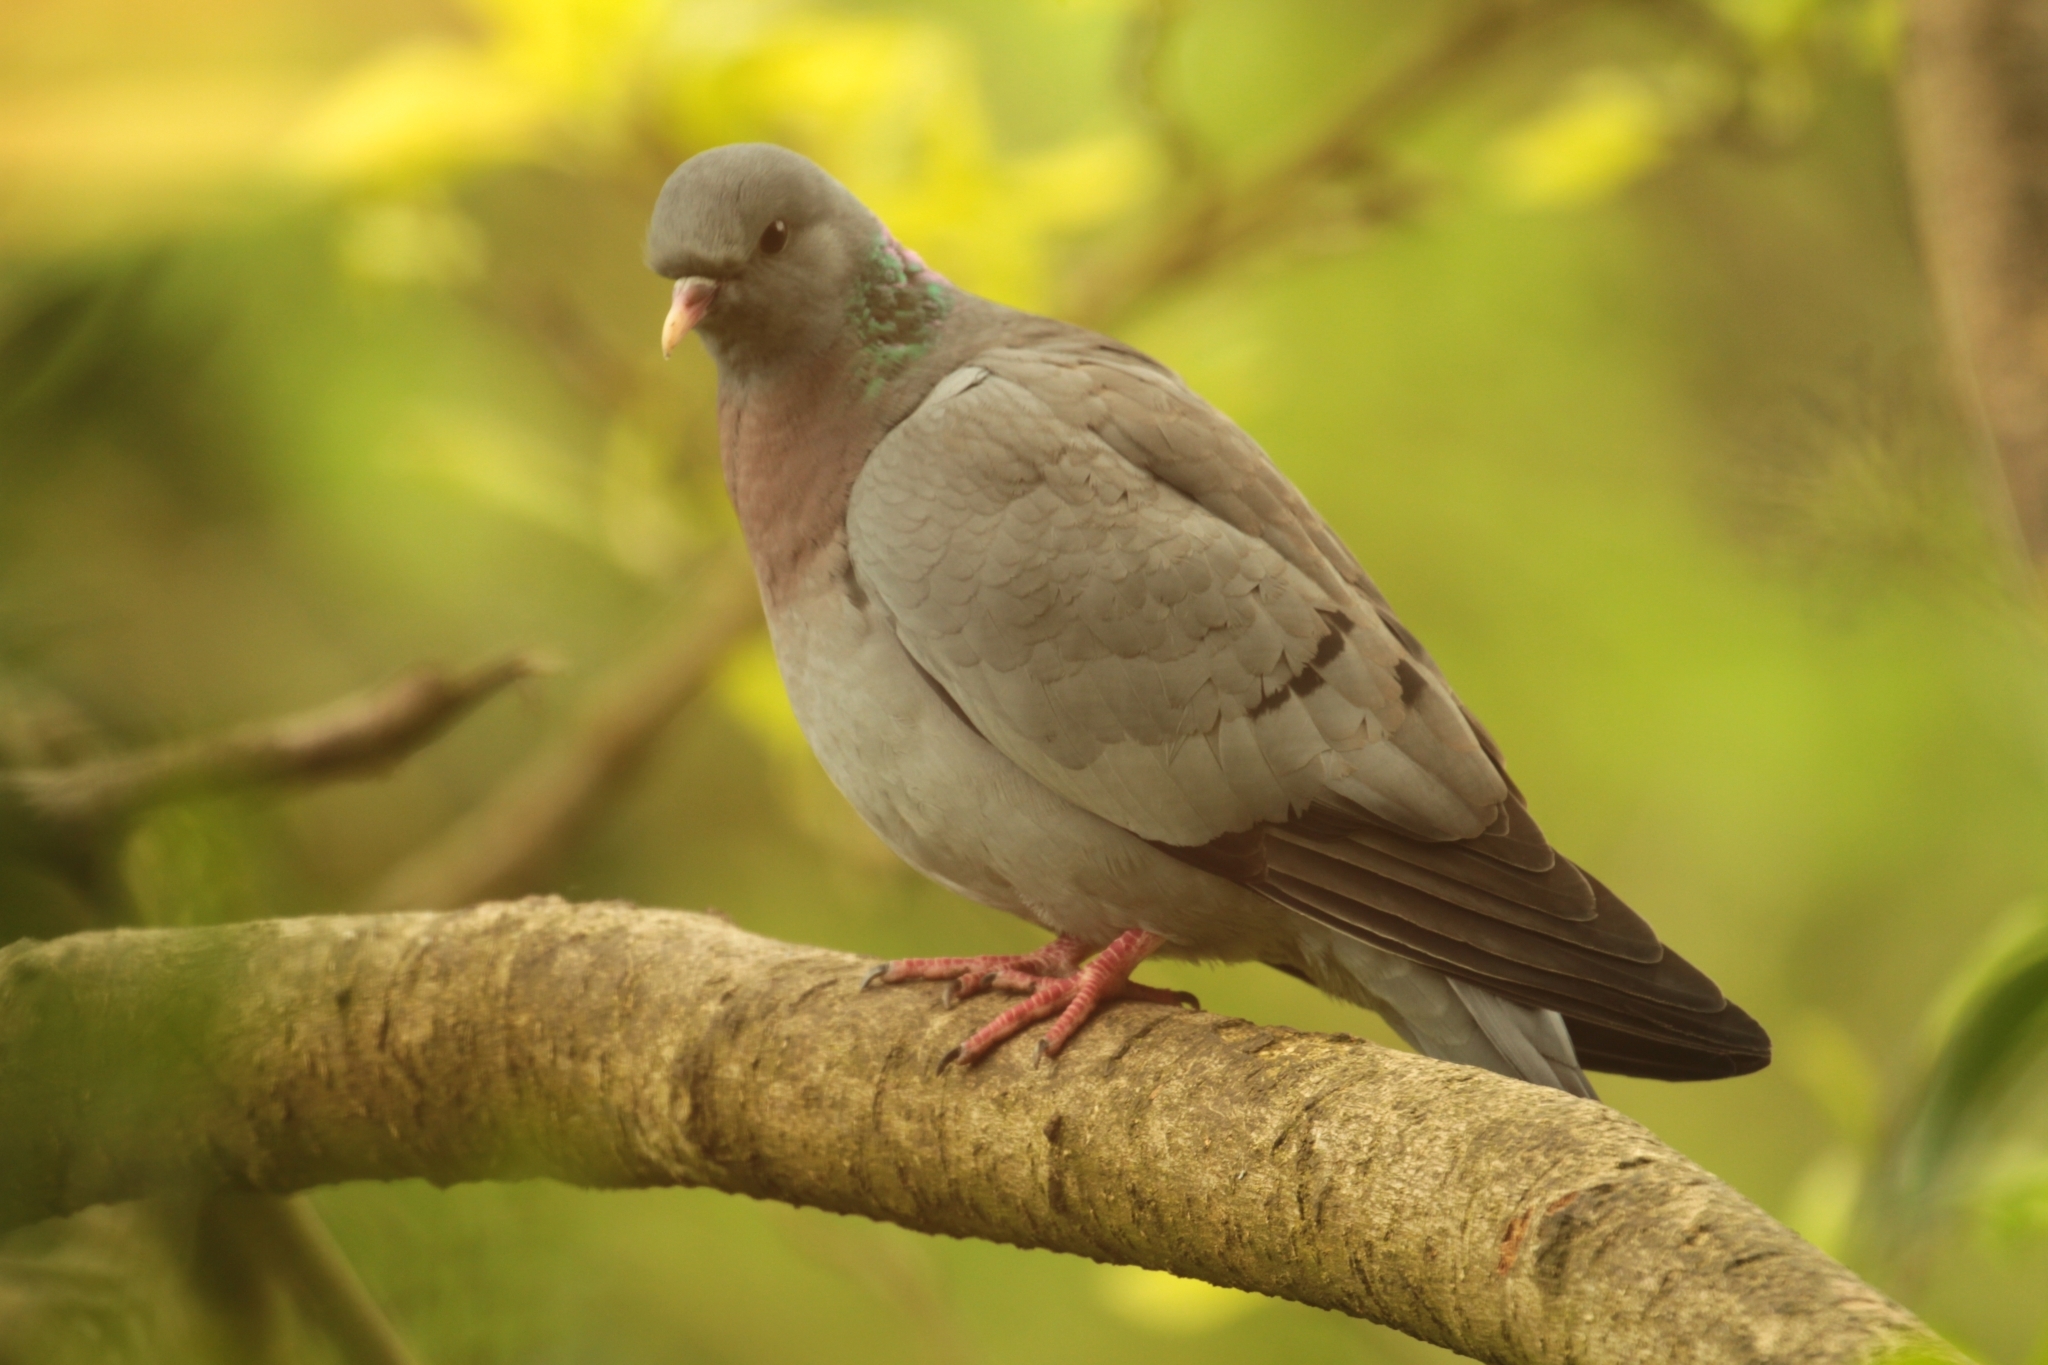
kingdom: Animalia
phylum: Chordata
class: Aves
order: Columbiformes
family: Columbidae
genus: Columba
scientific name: Columba oenas
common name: Stock dove
